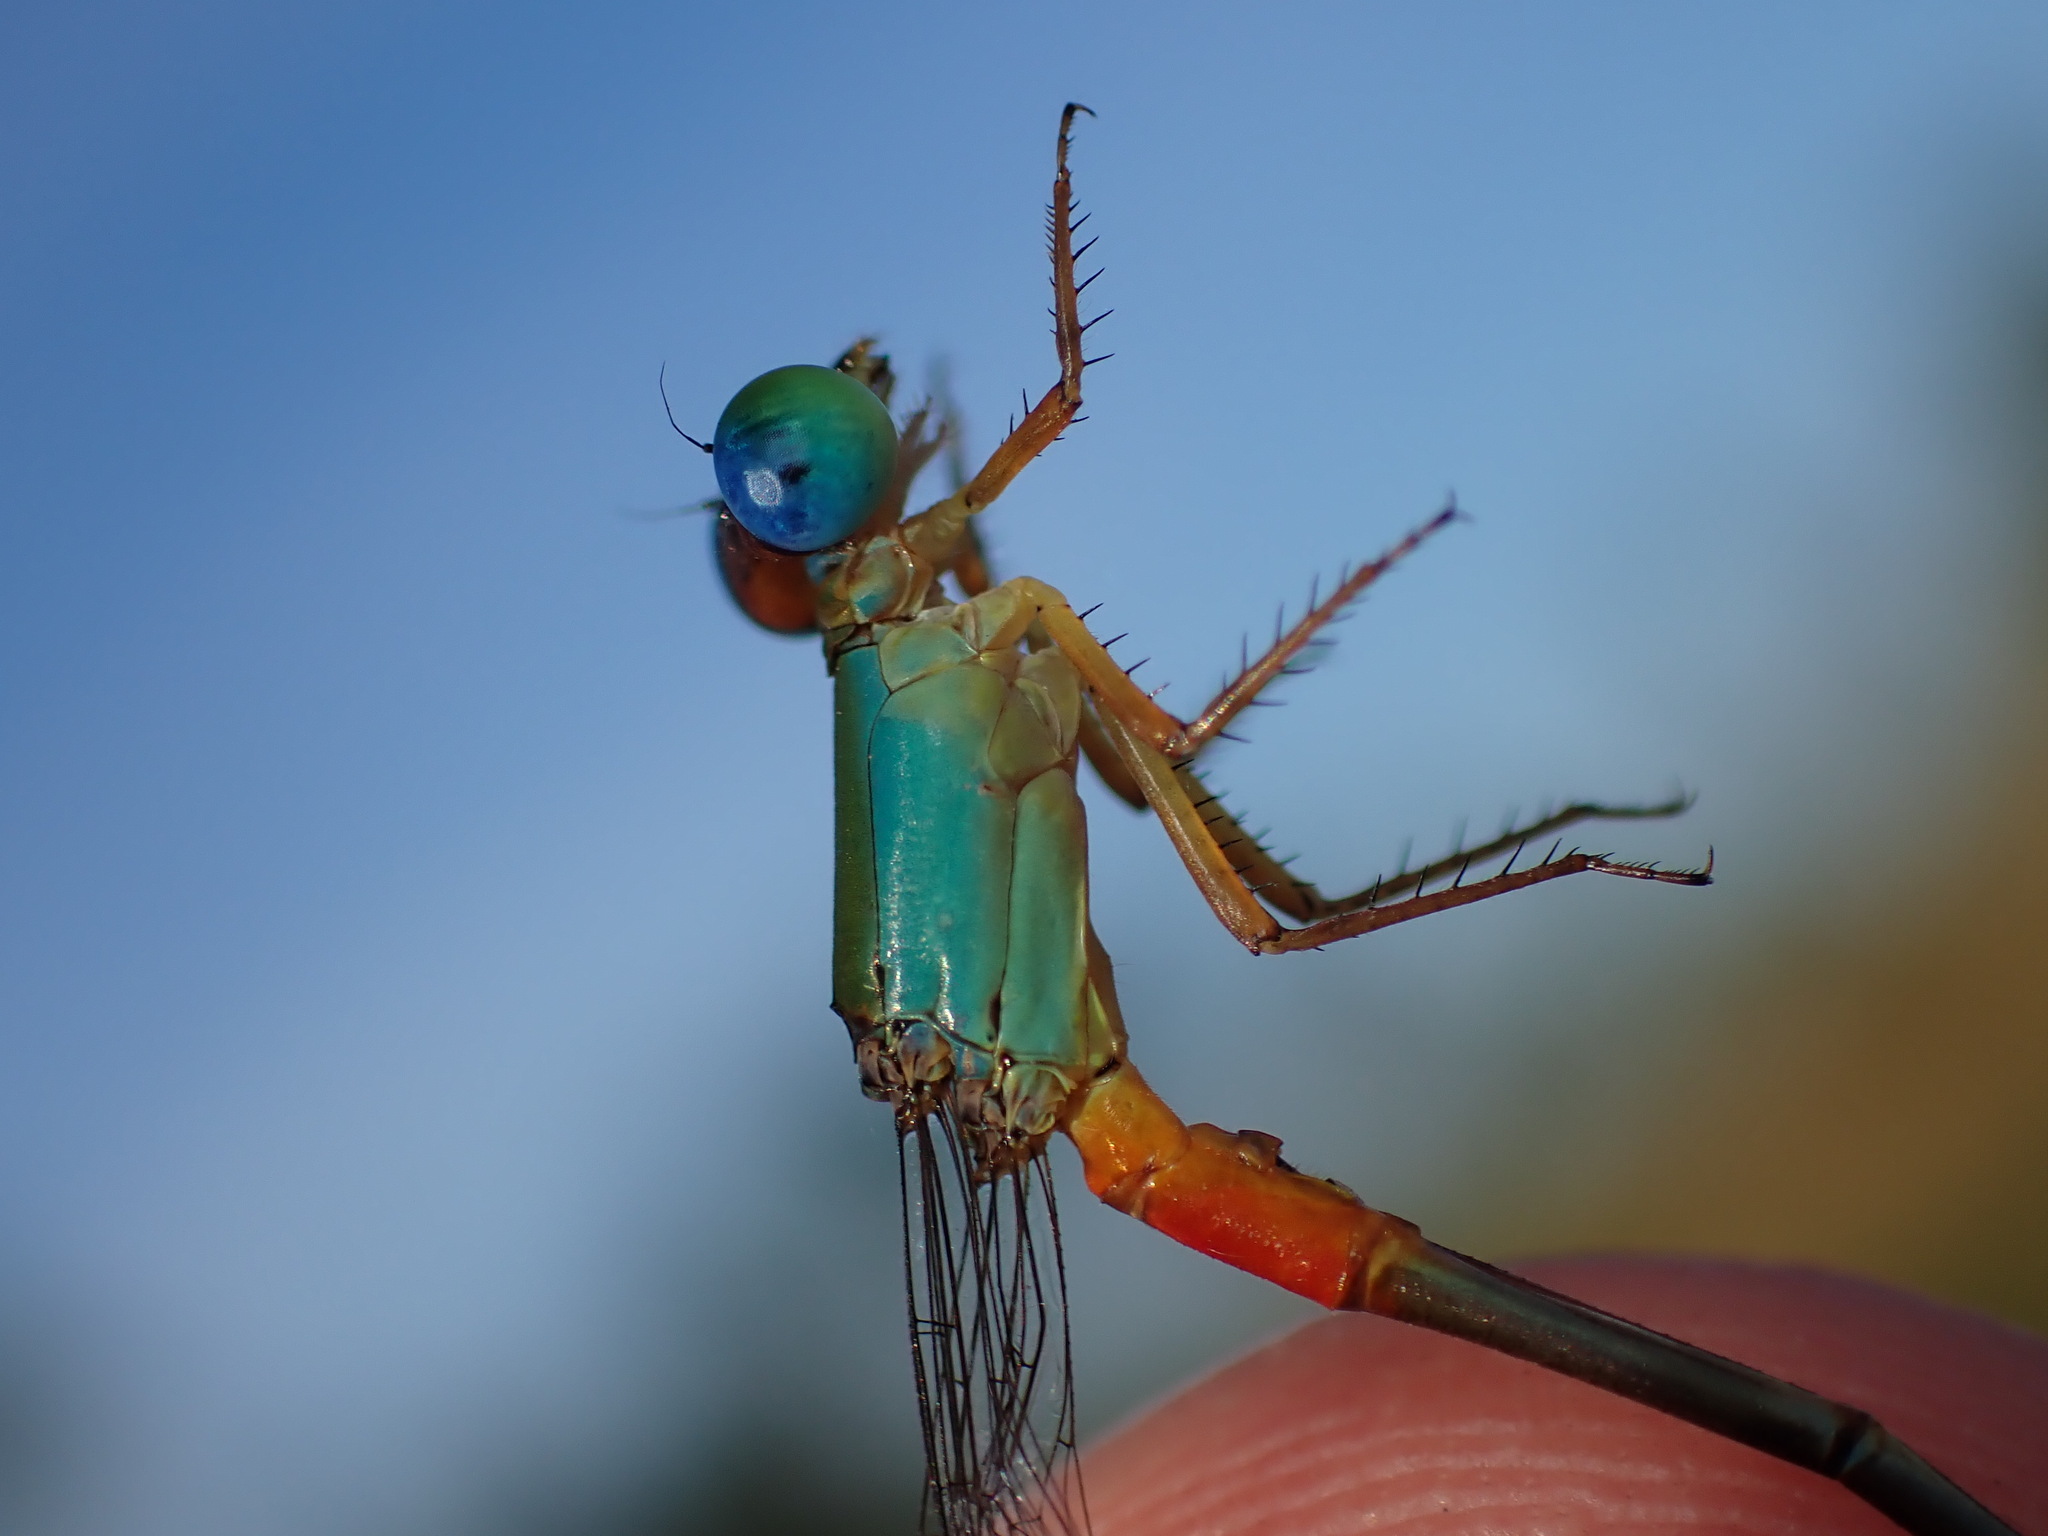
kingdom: Animalia
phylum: Arthropoda
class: Insecta
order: Odonata
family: Coenagrionidae
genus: Ceriagrion
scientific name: Ceriagrion cerinorubellum
